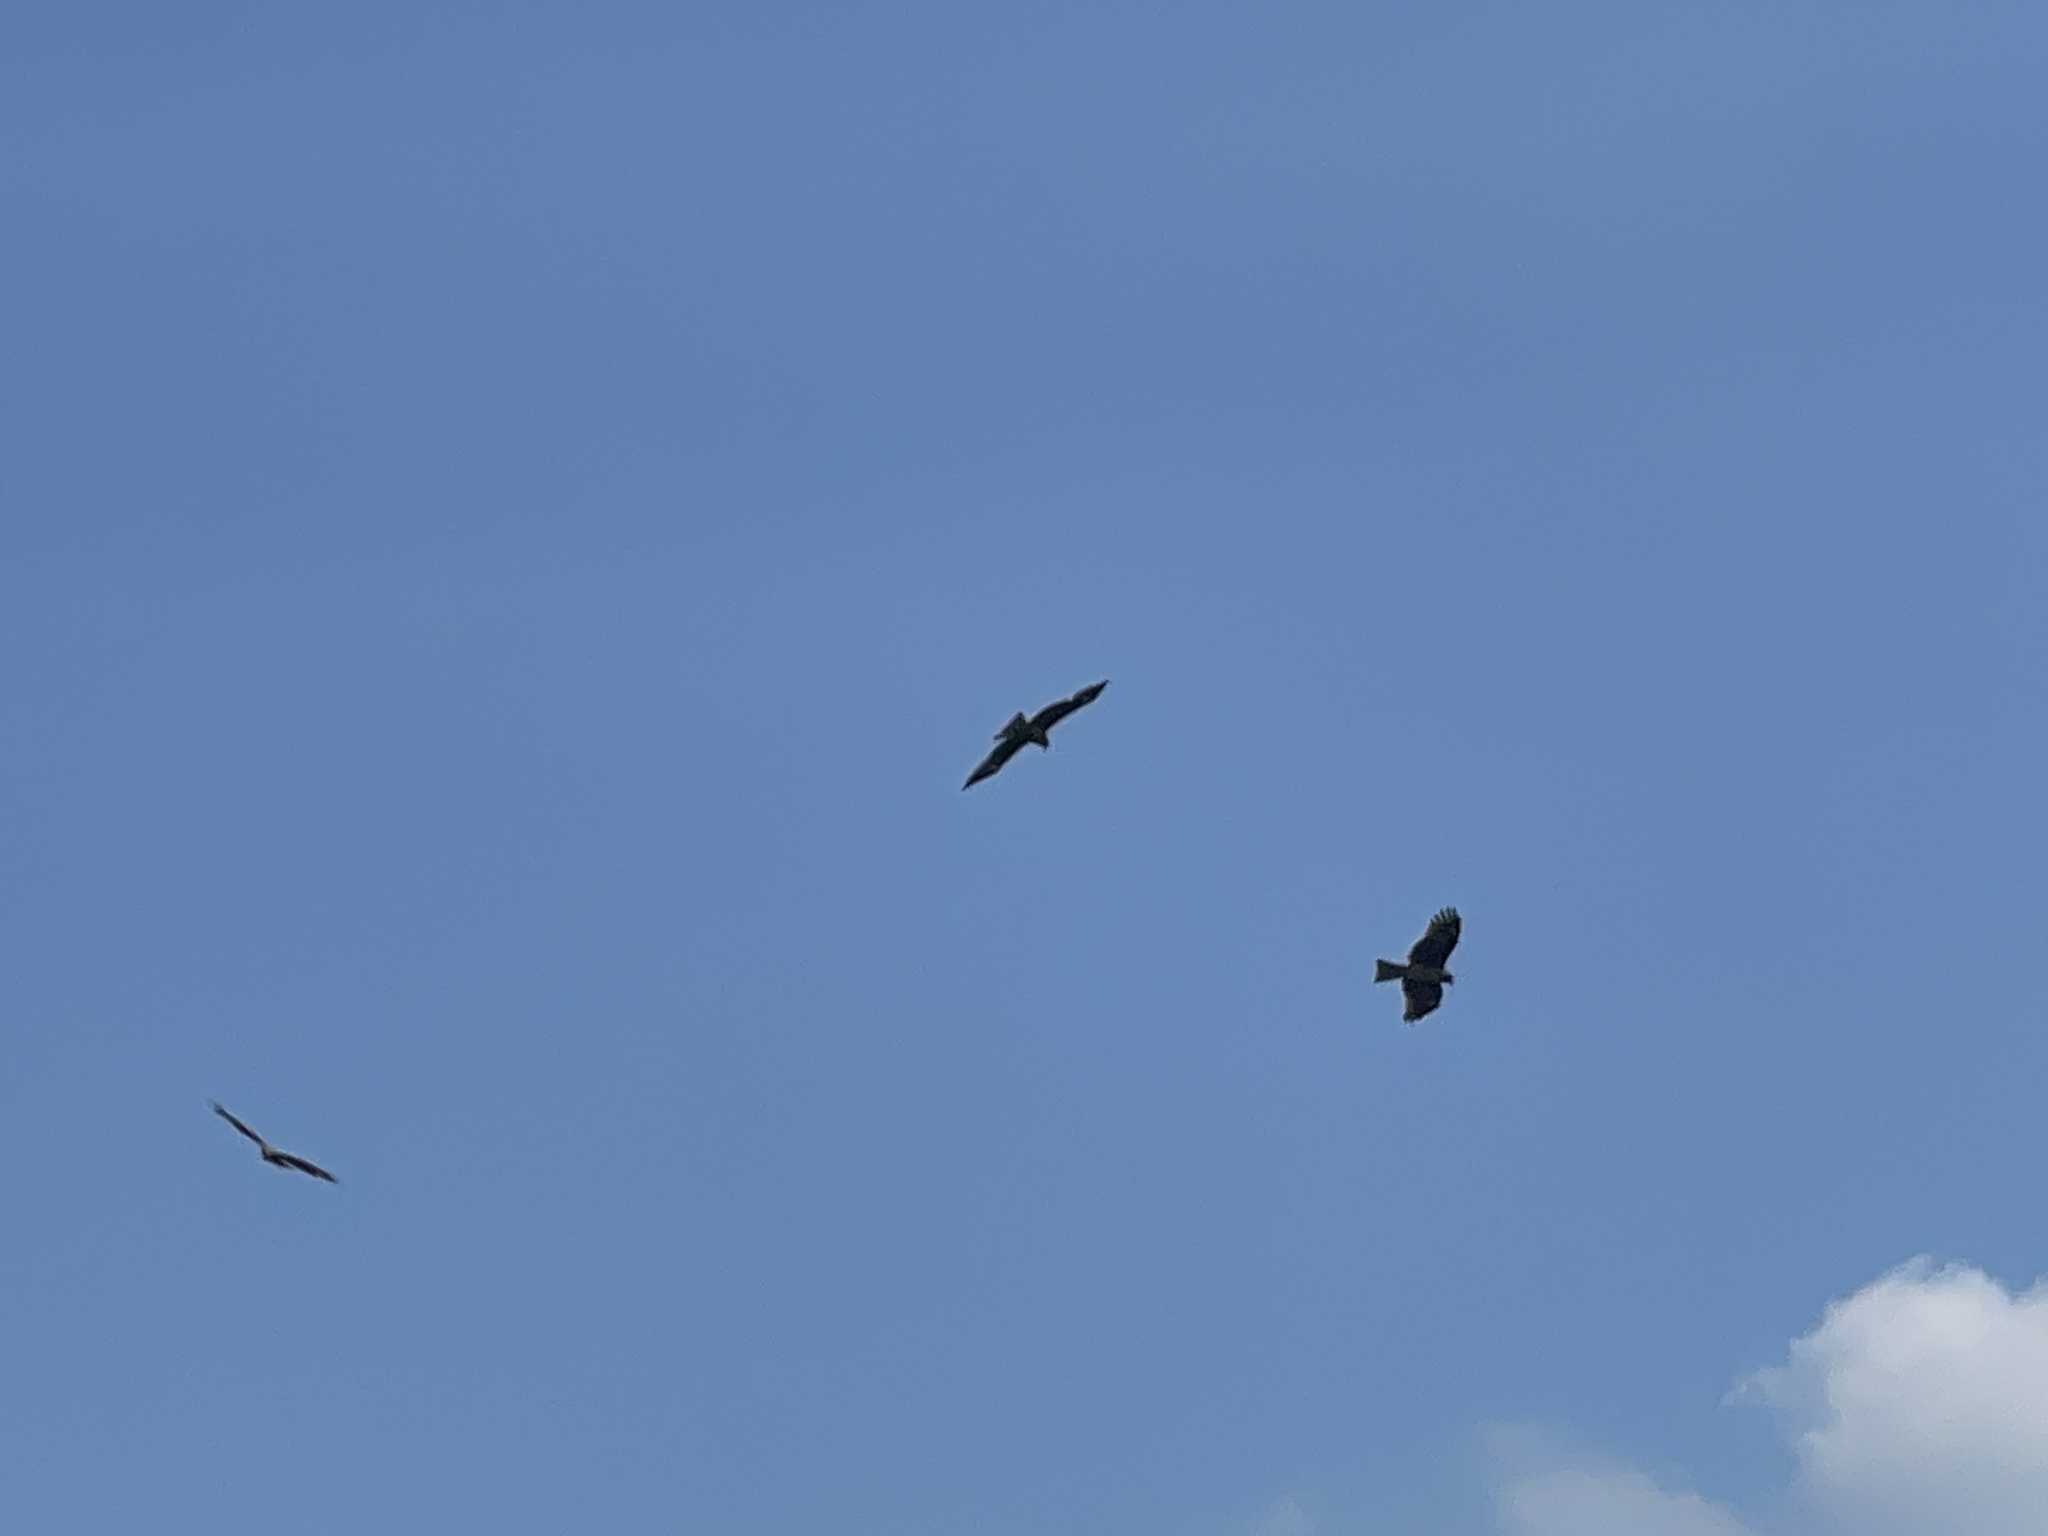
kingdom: Animalia
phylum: Chordata
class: Aves
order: Accipitriformes
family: Accipitridae
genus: Milvus
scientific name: Milvus migrans
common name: Black kite
